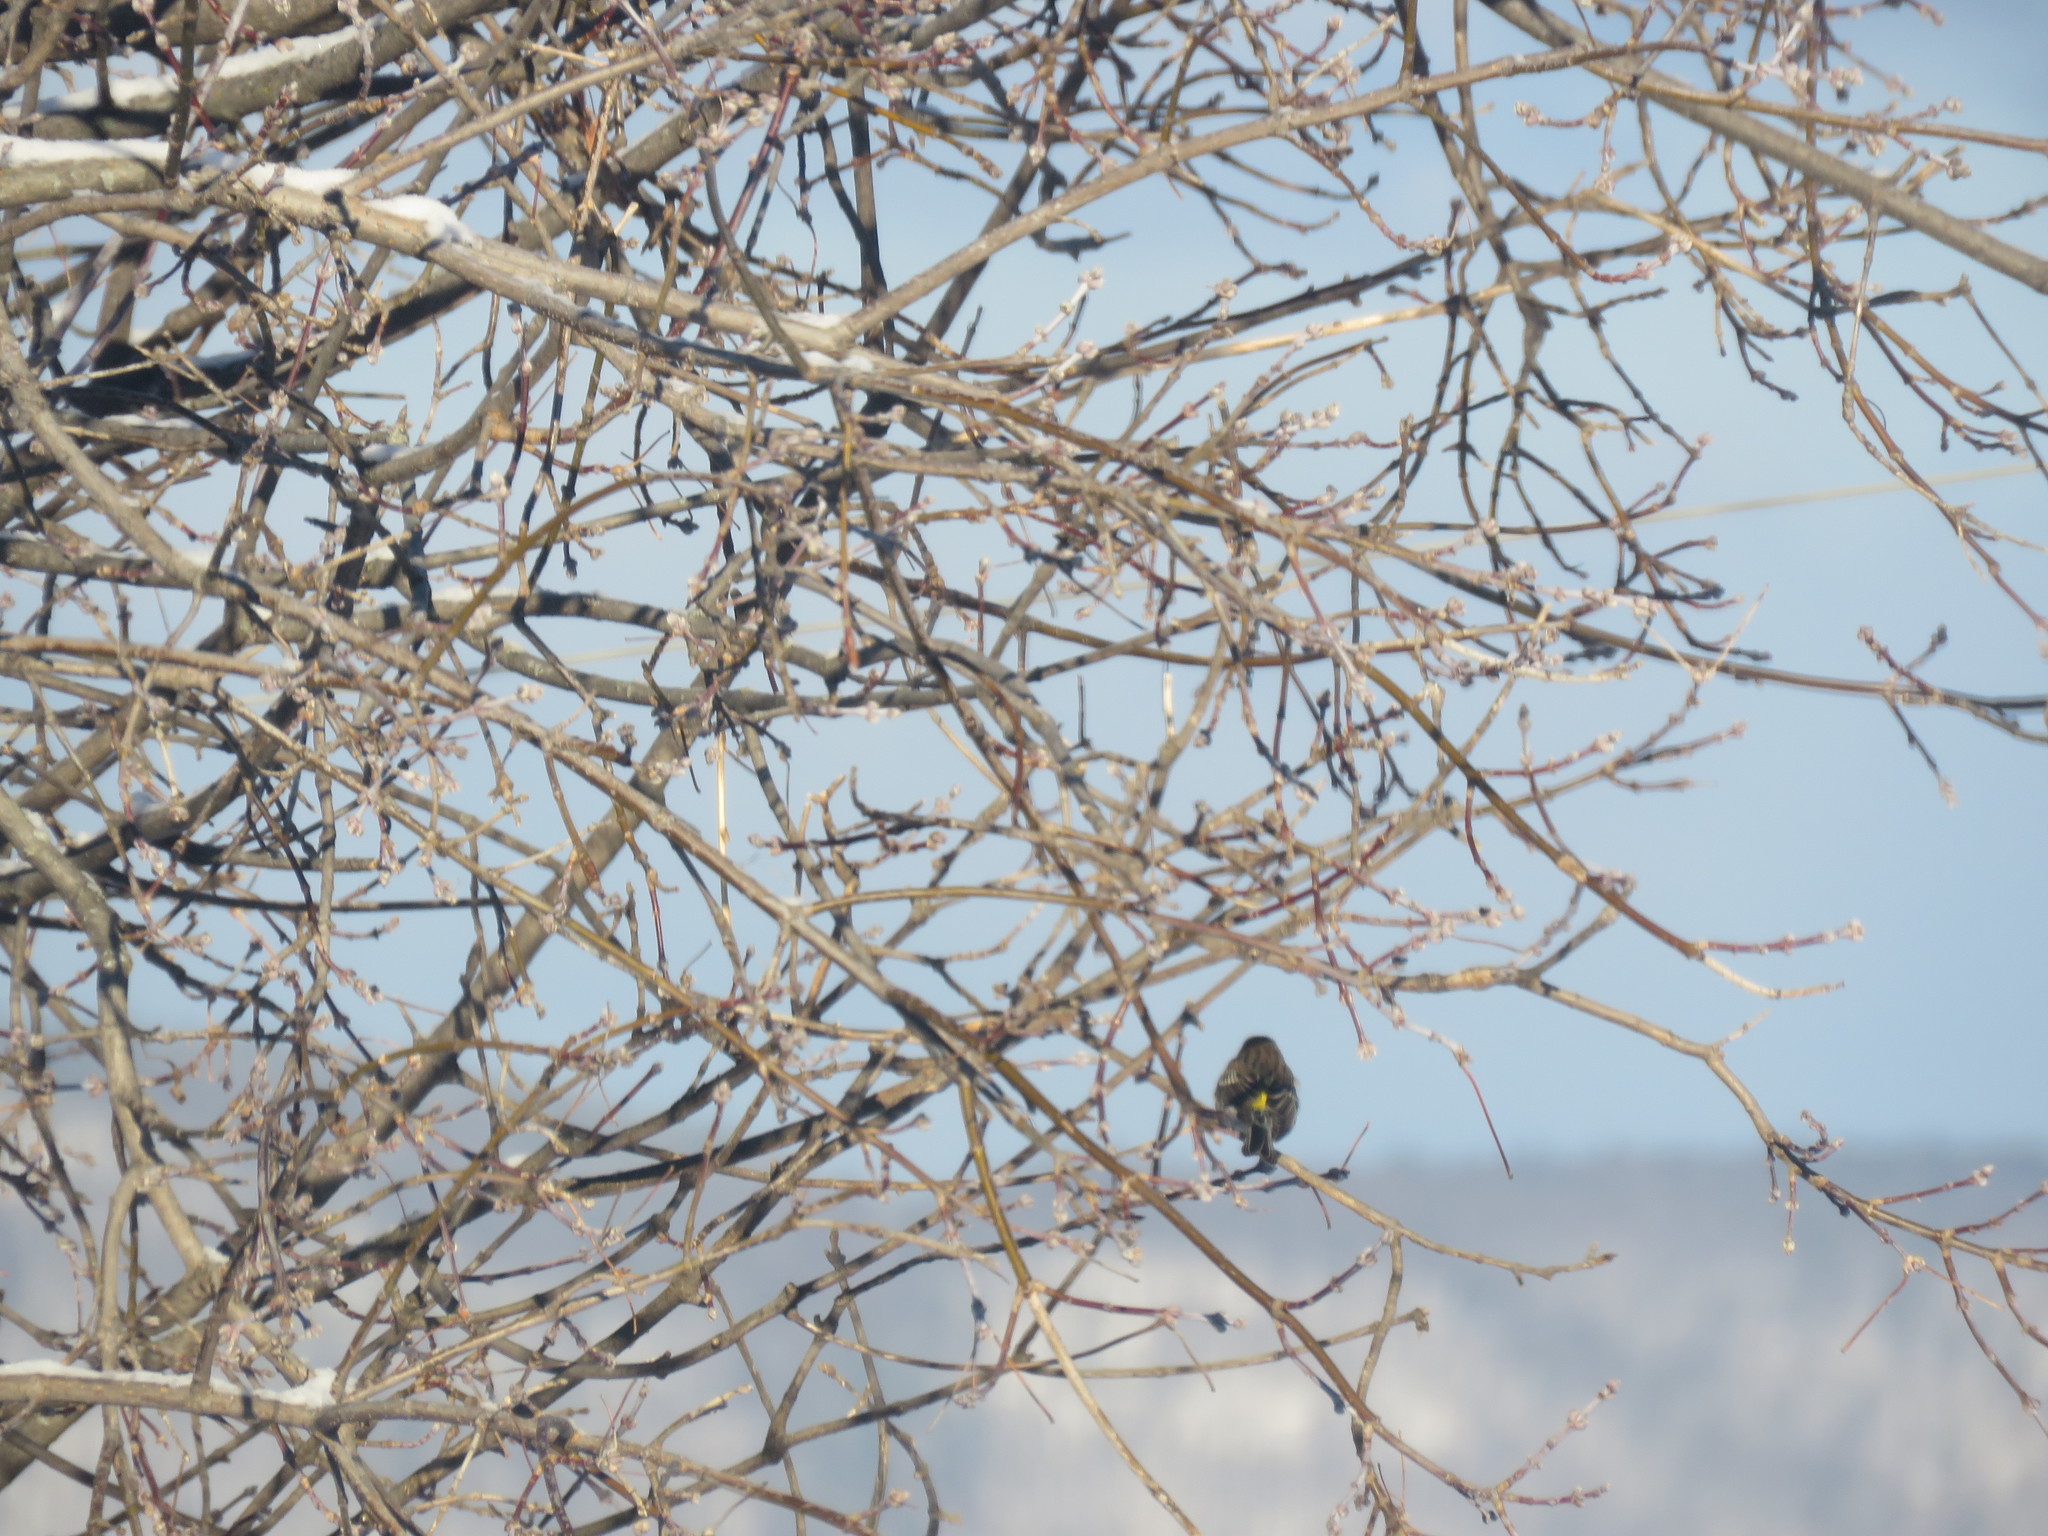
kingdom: Animalia
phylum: Chordata
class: Aves
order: Passeriformes
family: Parulidae
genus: Setophaga
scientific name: Setophaga coronata
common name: Myrtle warbler
